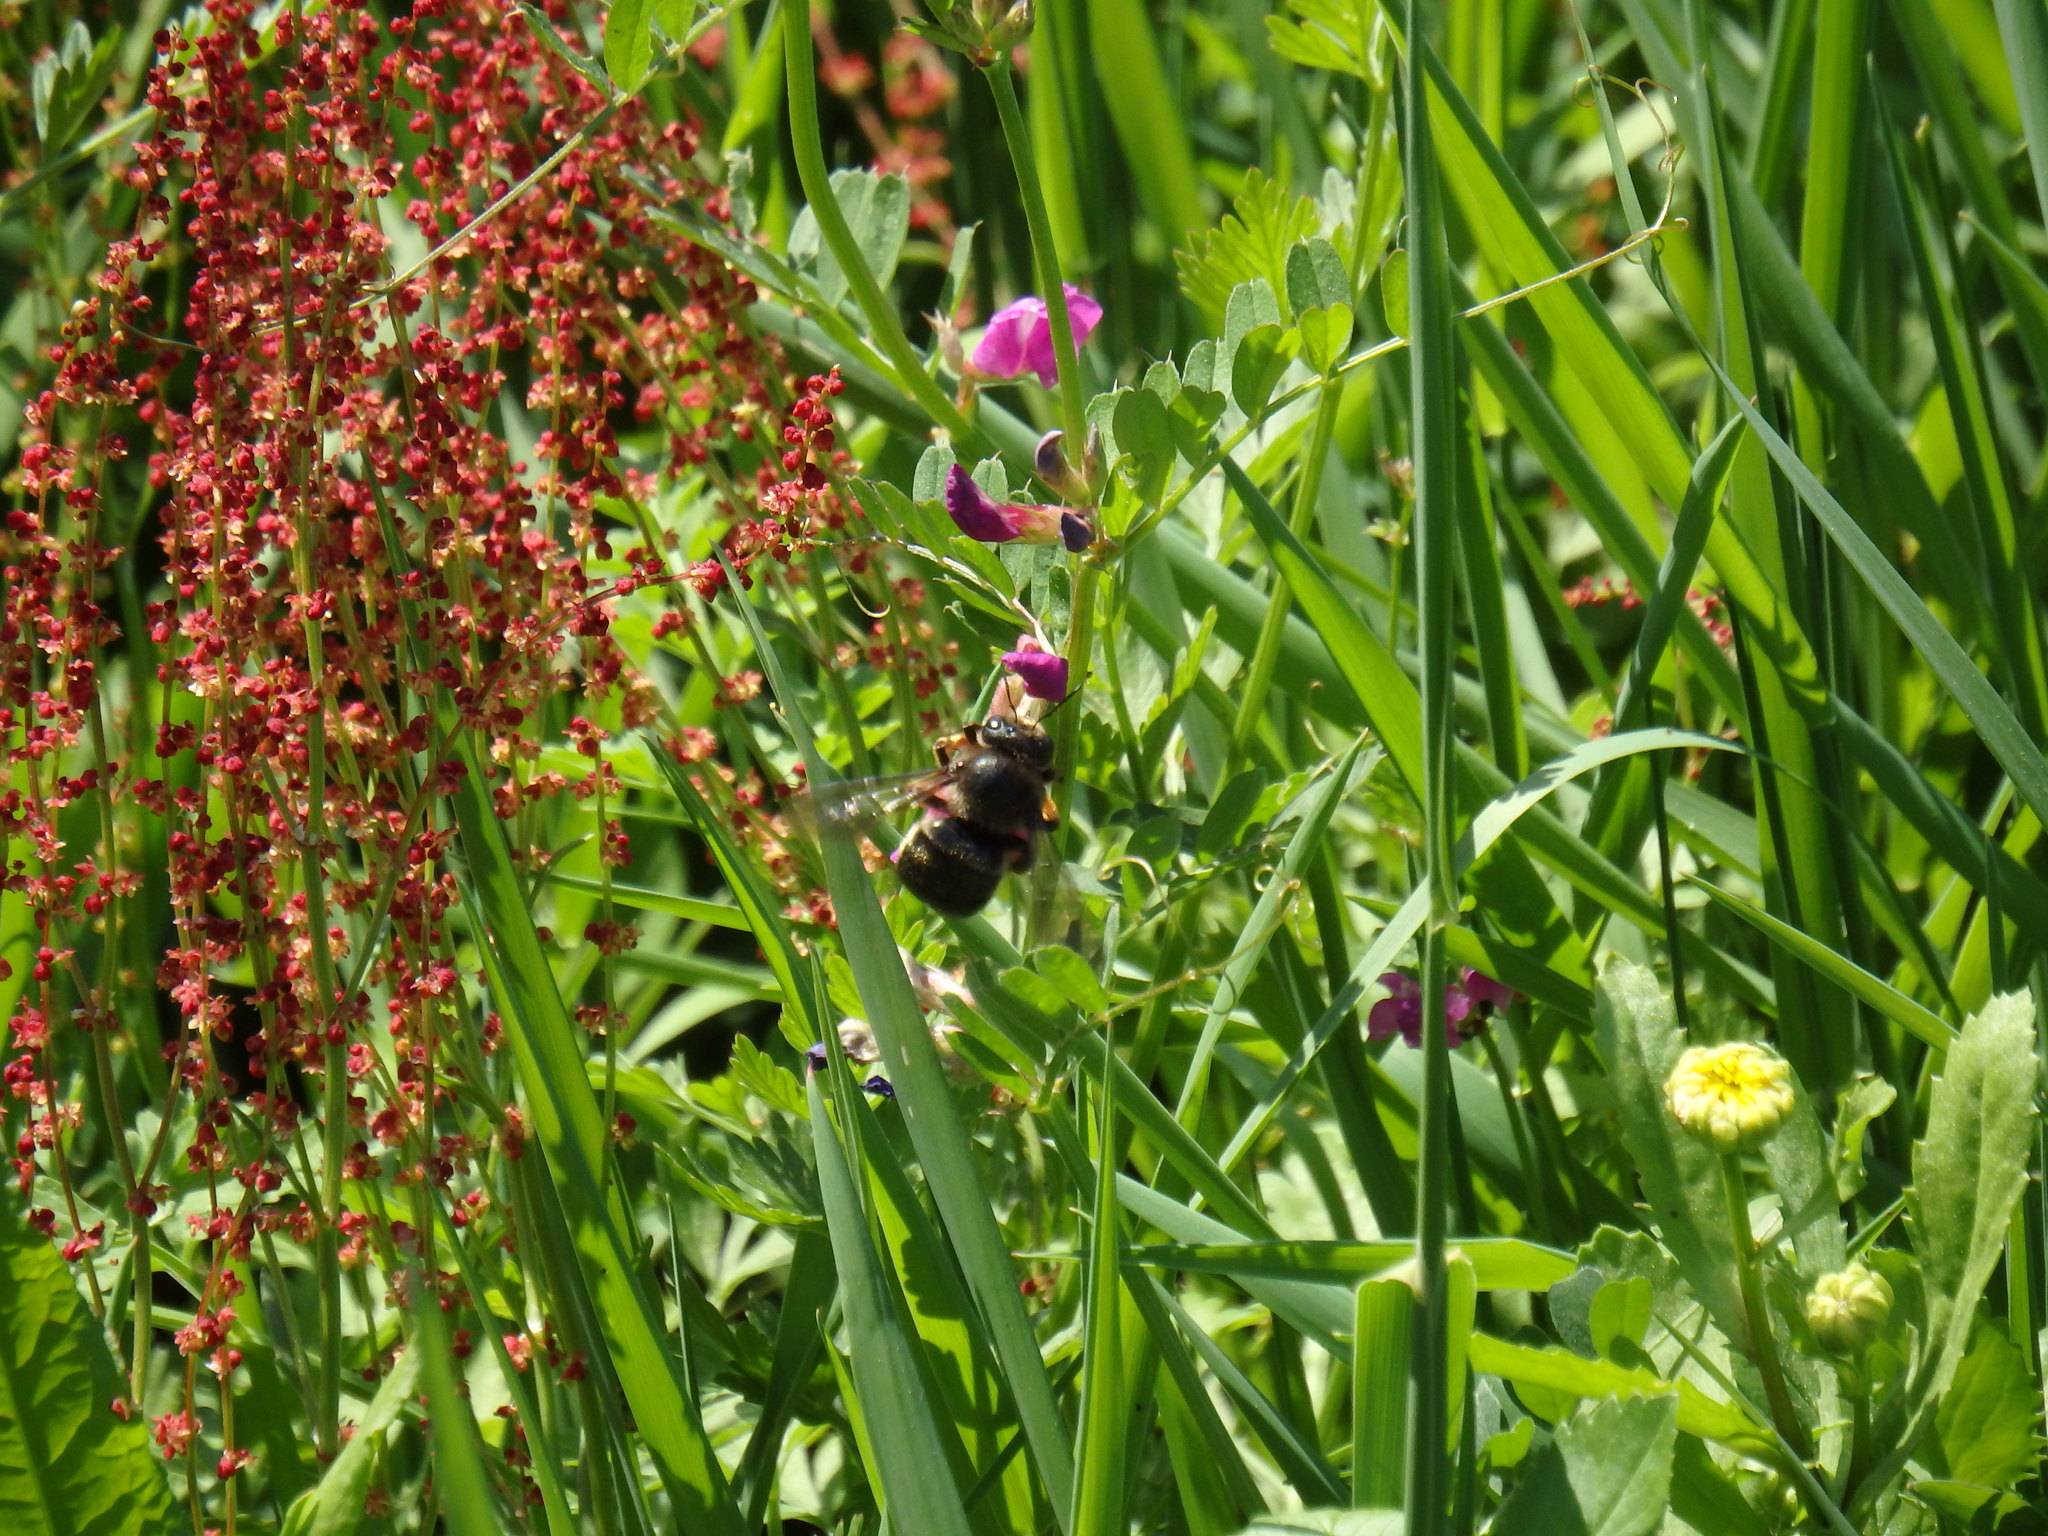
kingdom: Animalia
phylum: Arthropoda
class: Insecta
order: Hymenoptera
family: Apidae
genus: Xylocopa
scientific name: Xylocopa cantabrita
